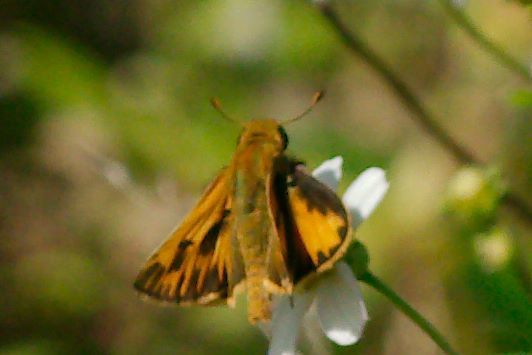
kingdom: Animalia
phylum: Arthropoda
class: Insecta
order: Lepidoptera
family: Hesperiidae
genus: Hylephila
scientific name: Hylephila phyleus
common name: Fiery skipper
